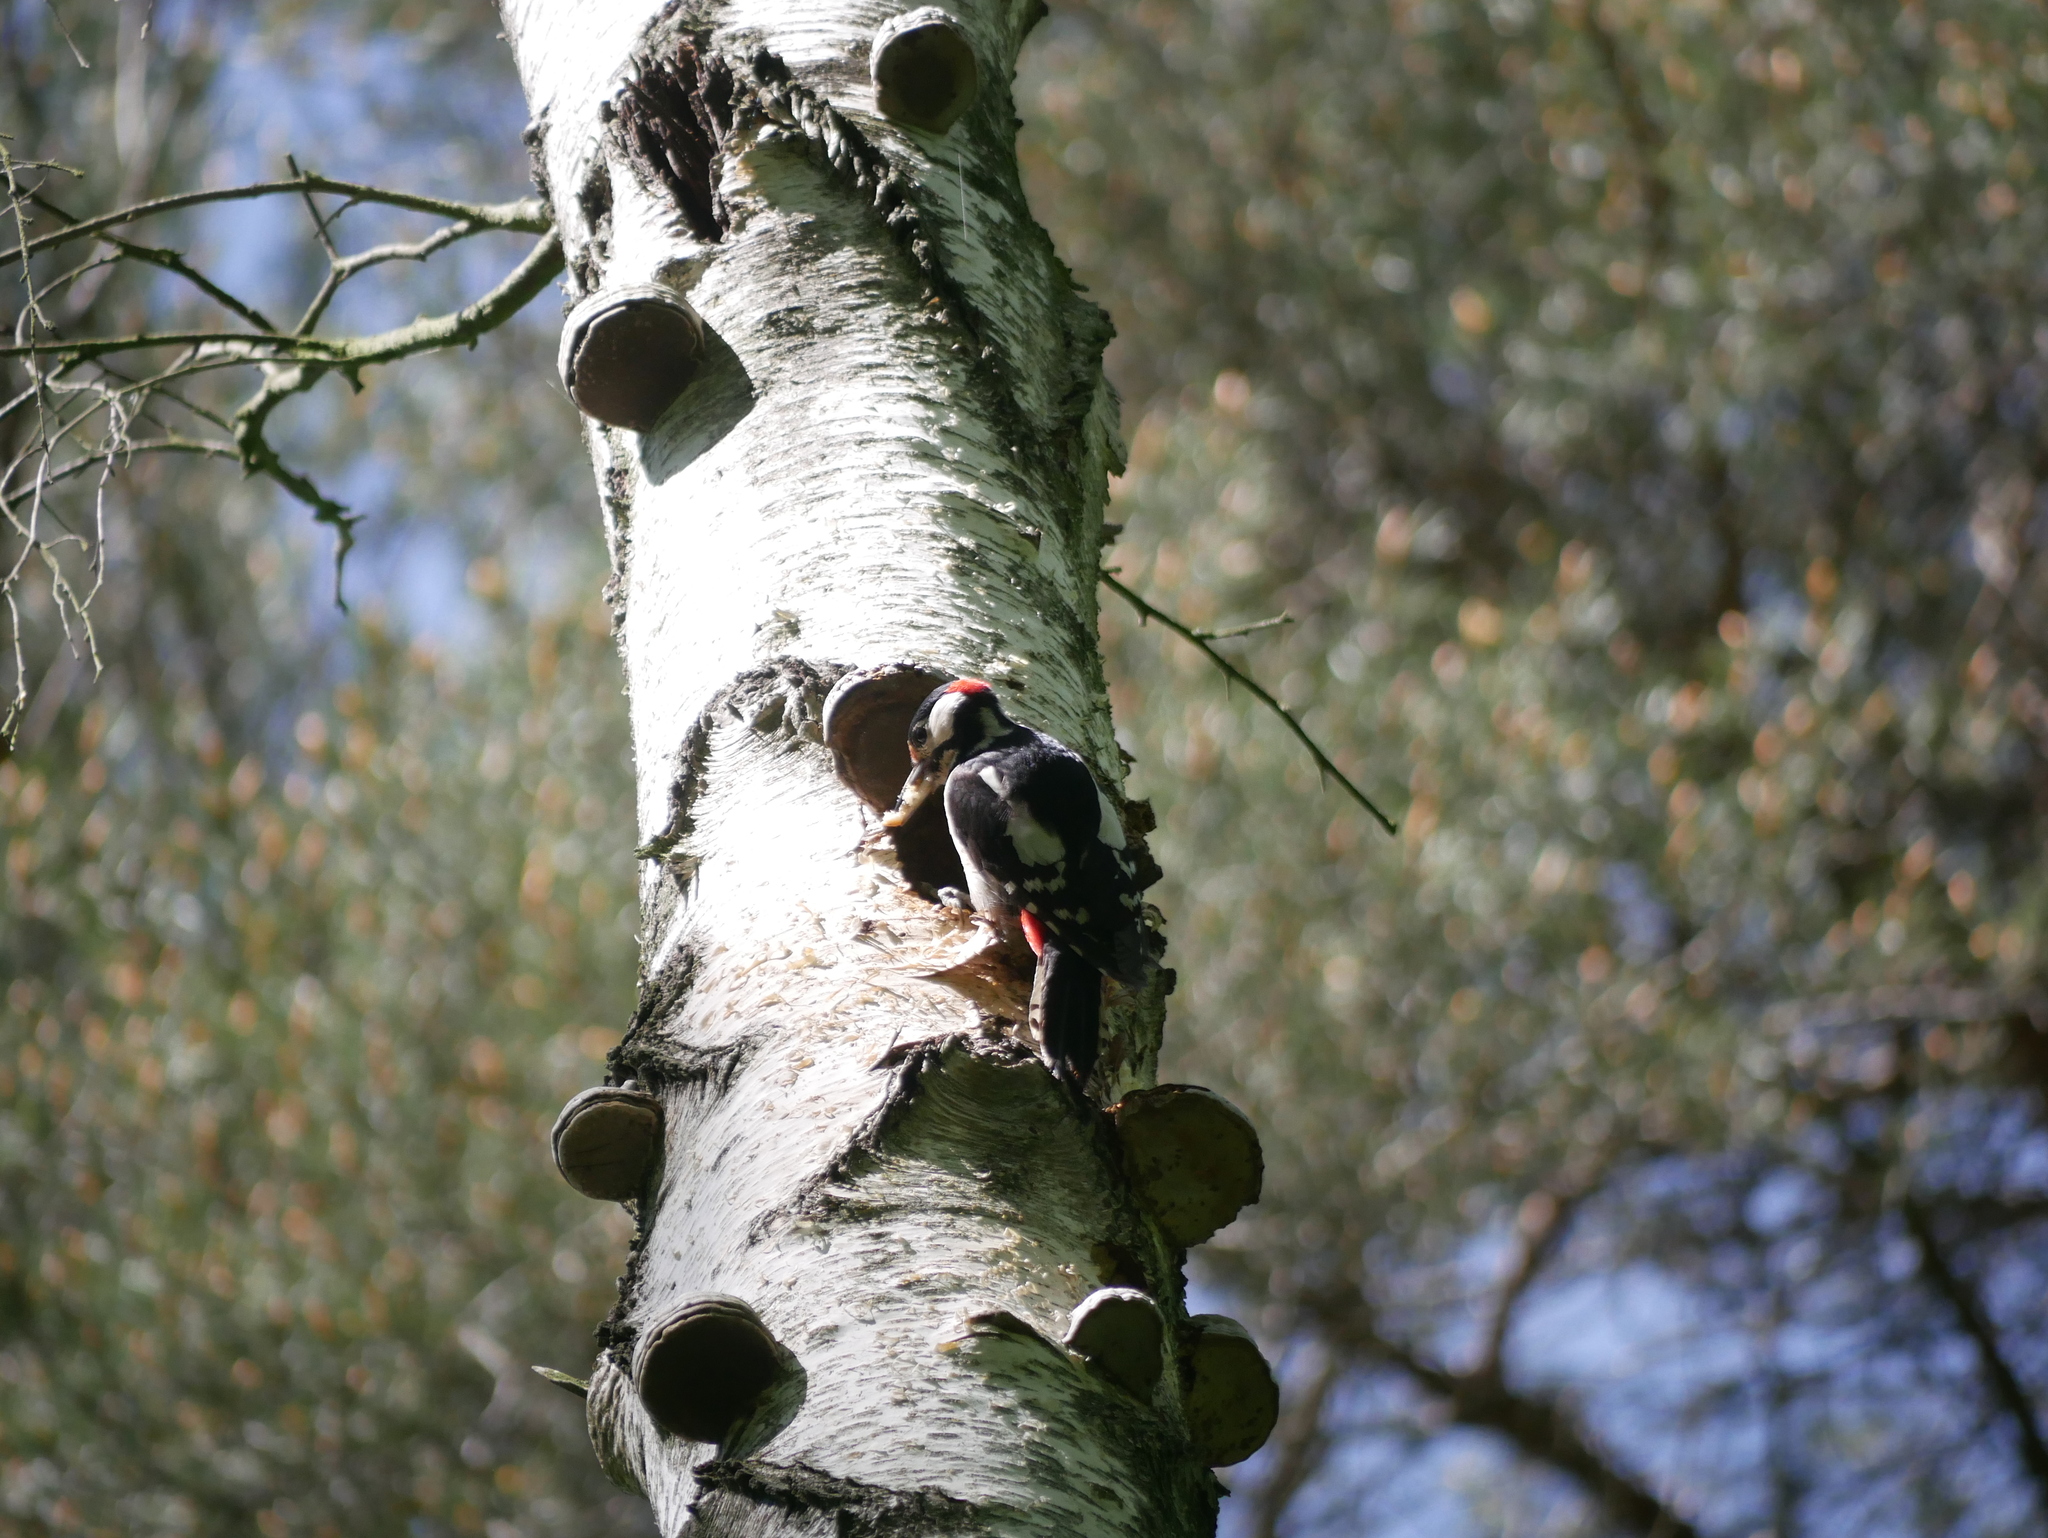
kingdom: Animalia
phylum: Chordata
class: Aves
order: Piciformes
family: Picidae
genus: Dendrocopos
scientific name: Dendrocopos major
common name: Great spotted woodpecker
